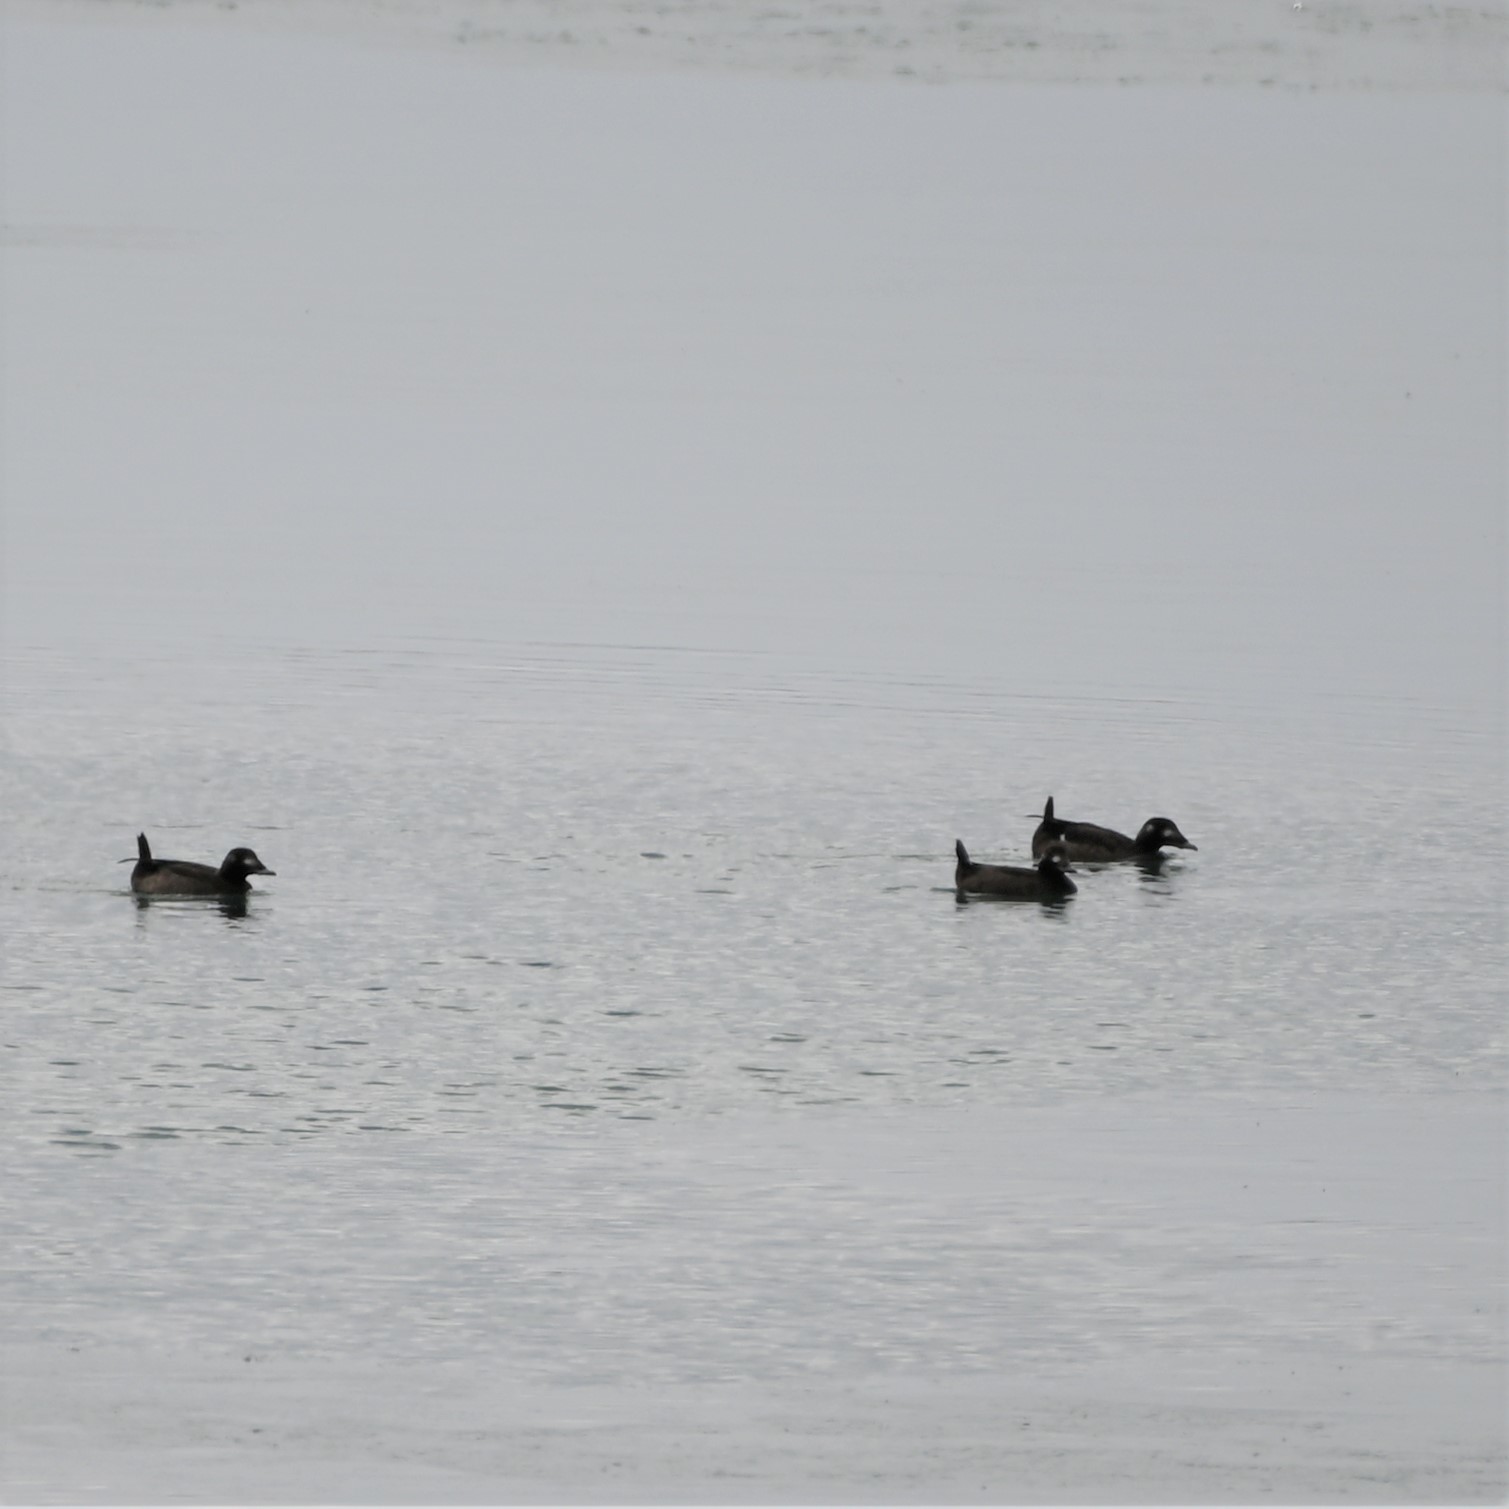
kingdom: Animalia
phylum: Chordata
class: Aves
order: Anseriformes
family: Anatidae
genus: Melanitta
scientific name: Melanitta deglandi
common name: White-winged scoter
